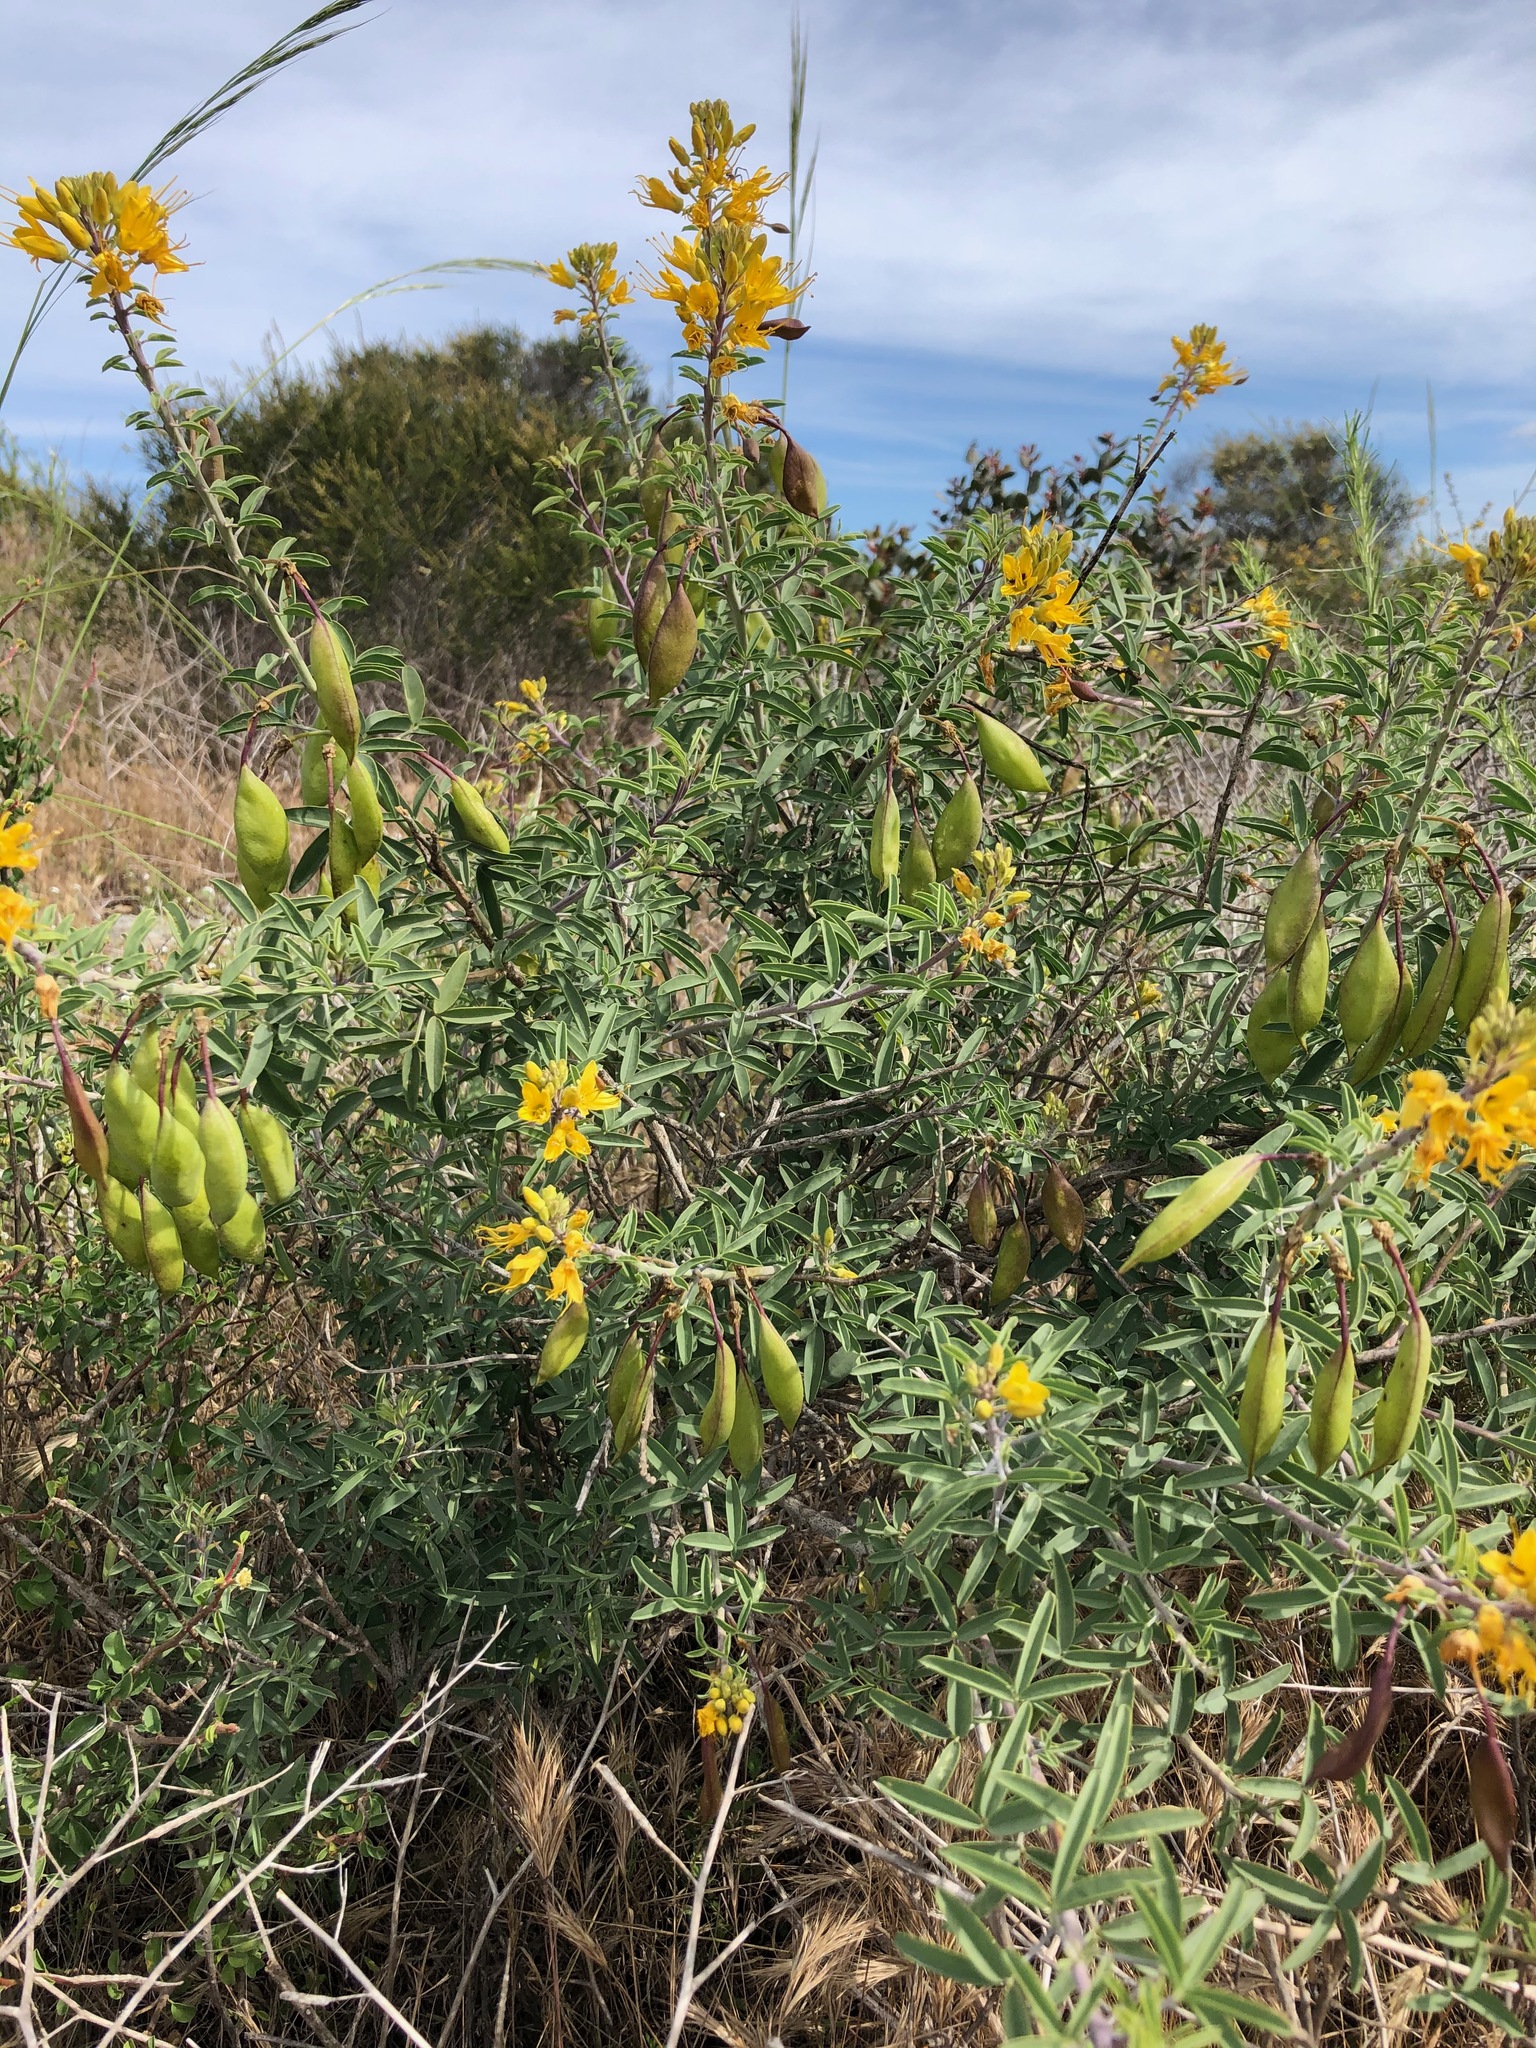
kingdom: Plantae
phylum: Tracheophyta
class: Magnoliopsida
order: Brassicales
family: Cleomaceae
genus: Cleomella
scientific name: Cleomella arborea
